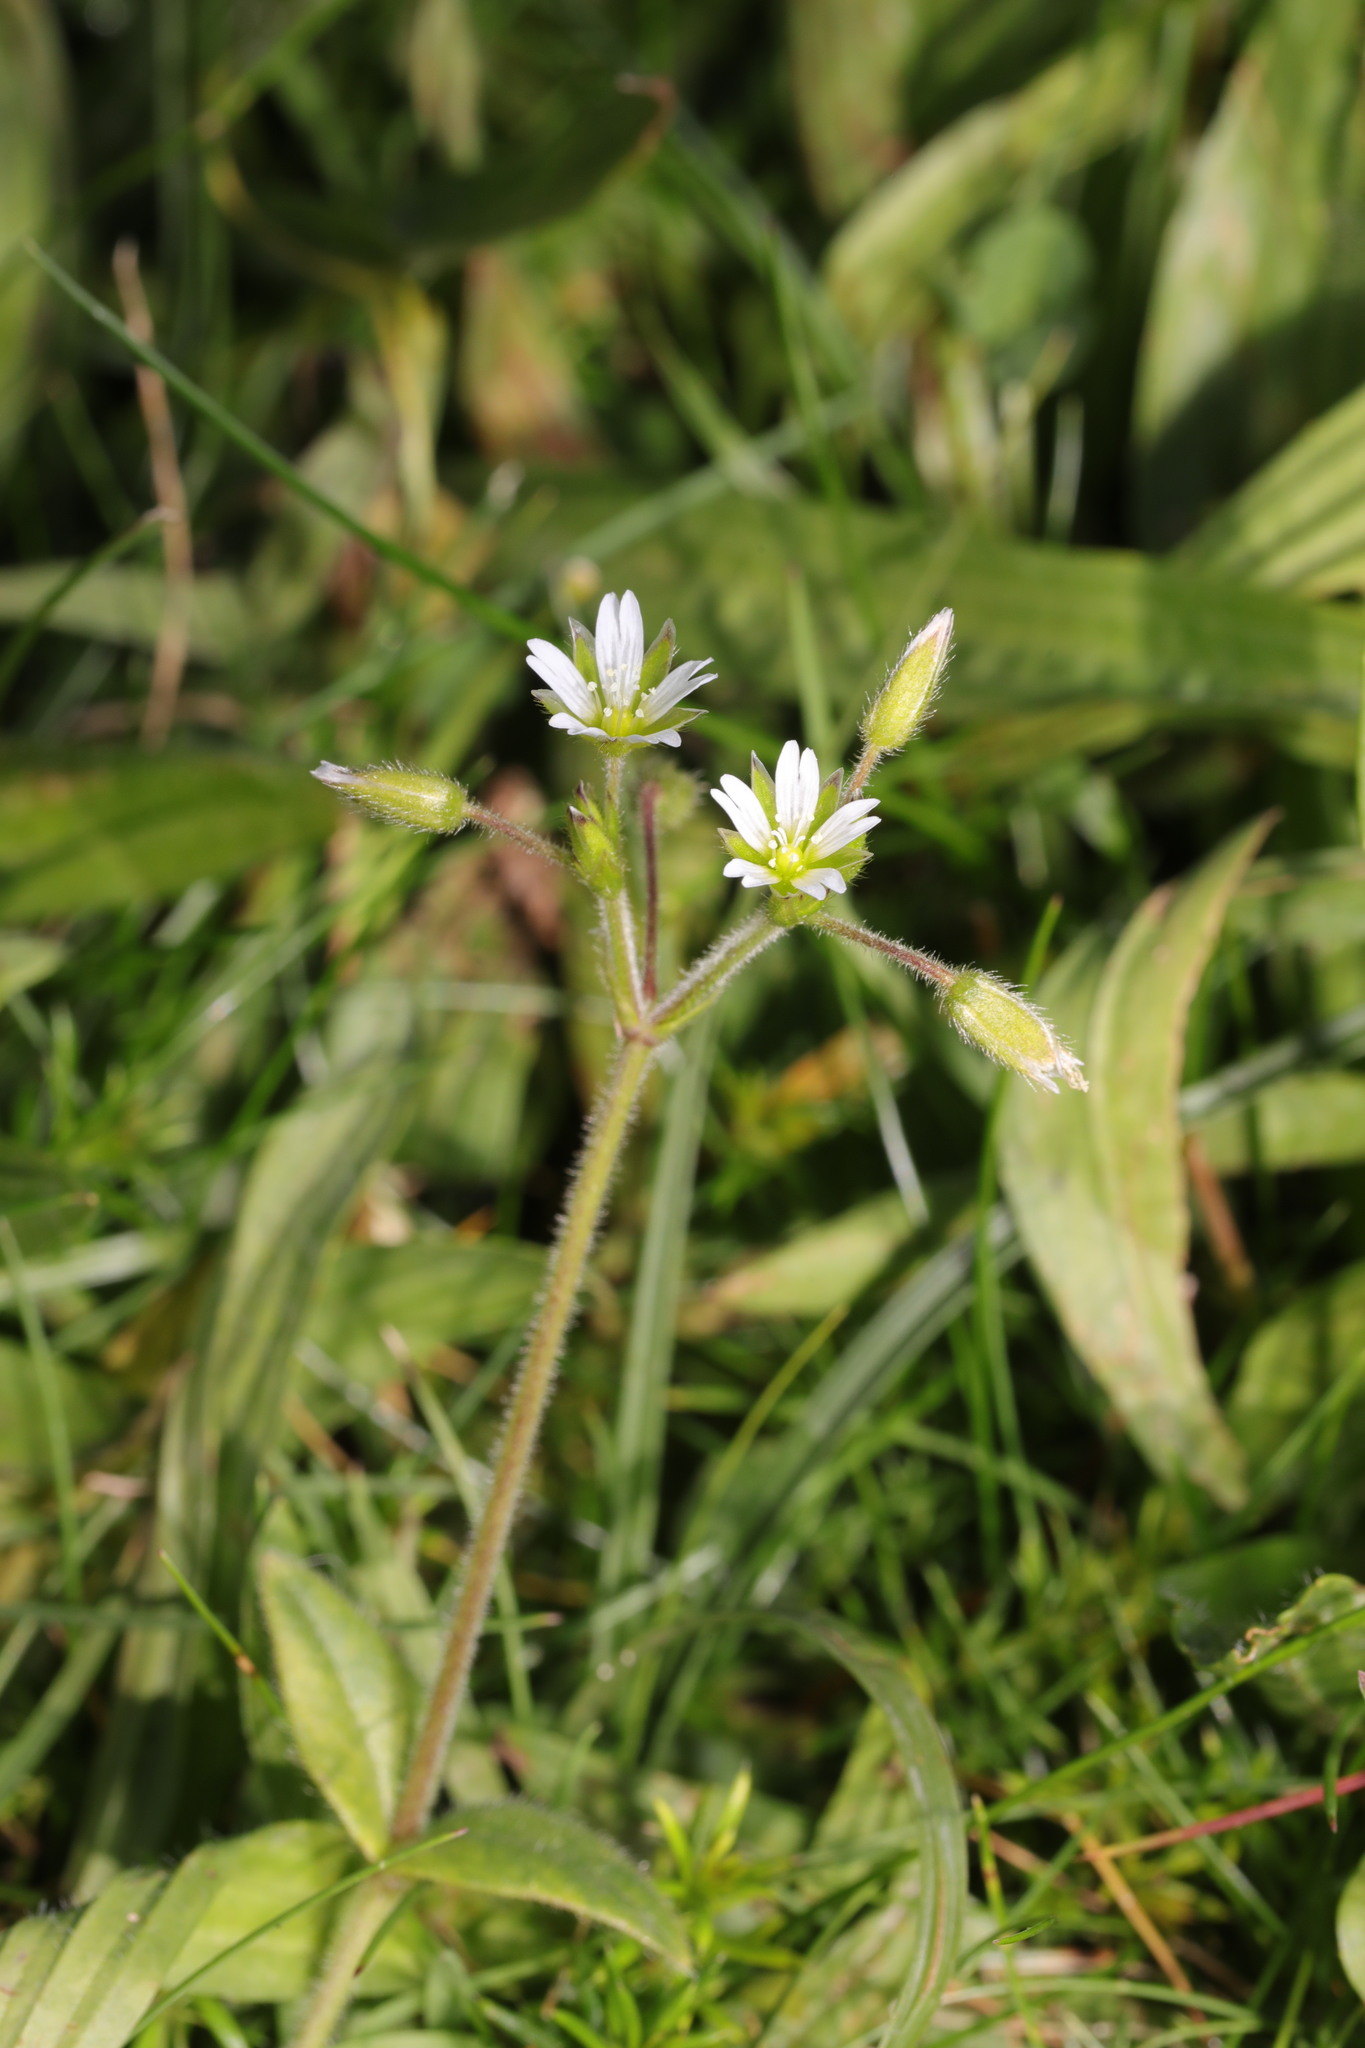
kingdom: Plantae
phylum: Tracheophyta
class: Magnoliopsida
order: Caryophyllales
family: Caryophyllaceae
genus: Cerastium
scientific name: Cerastium fontanum
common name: Common mouse-ear
